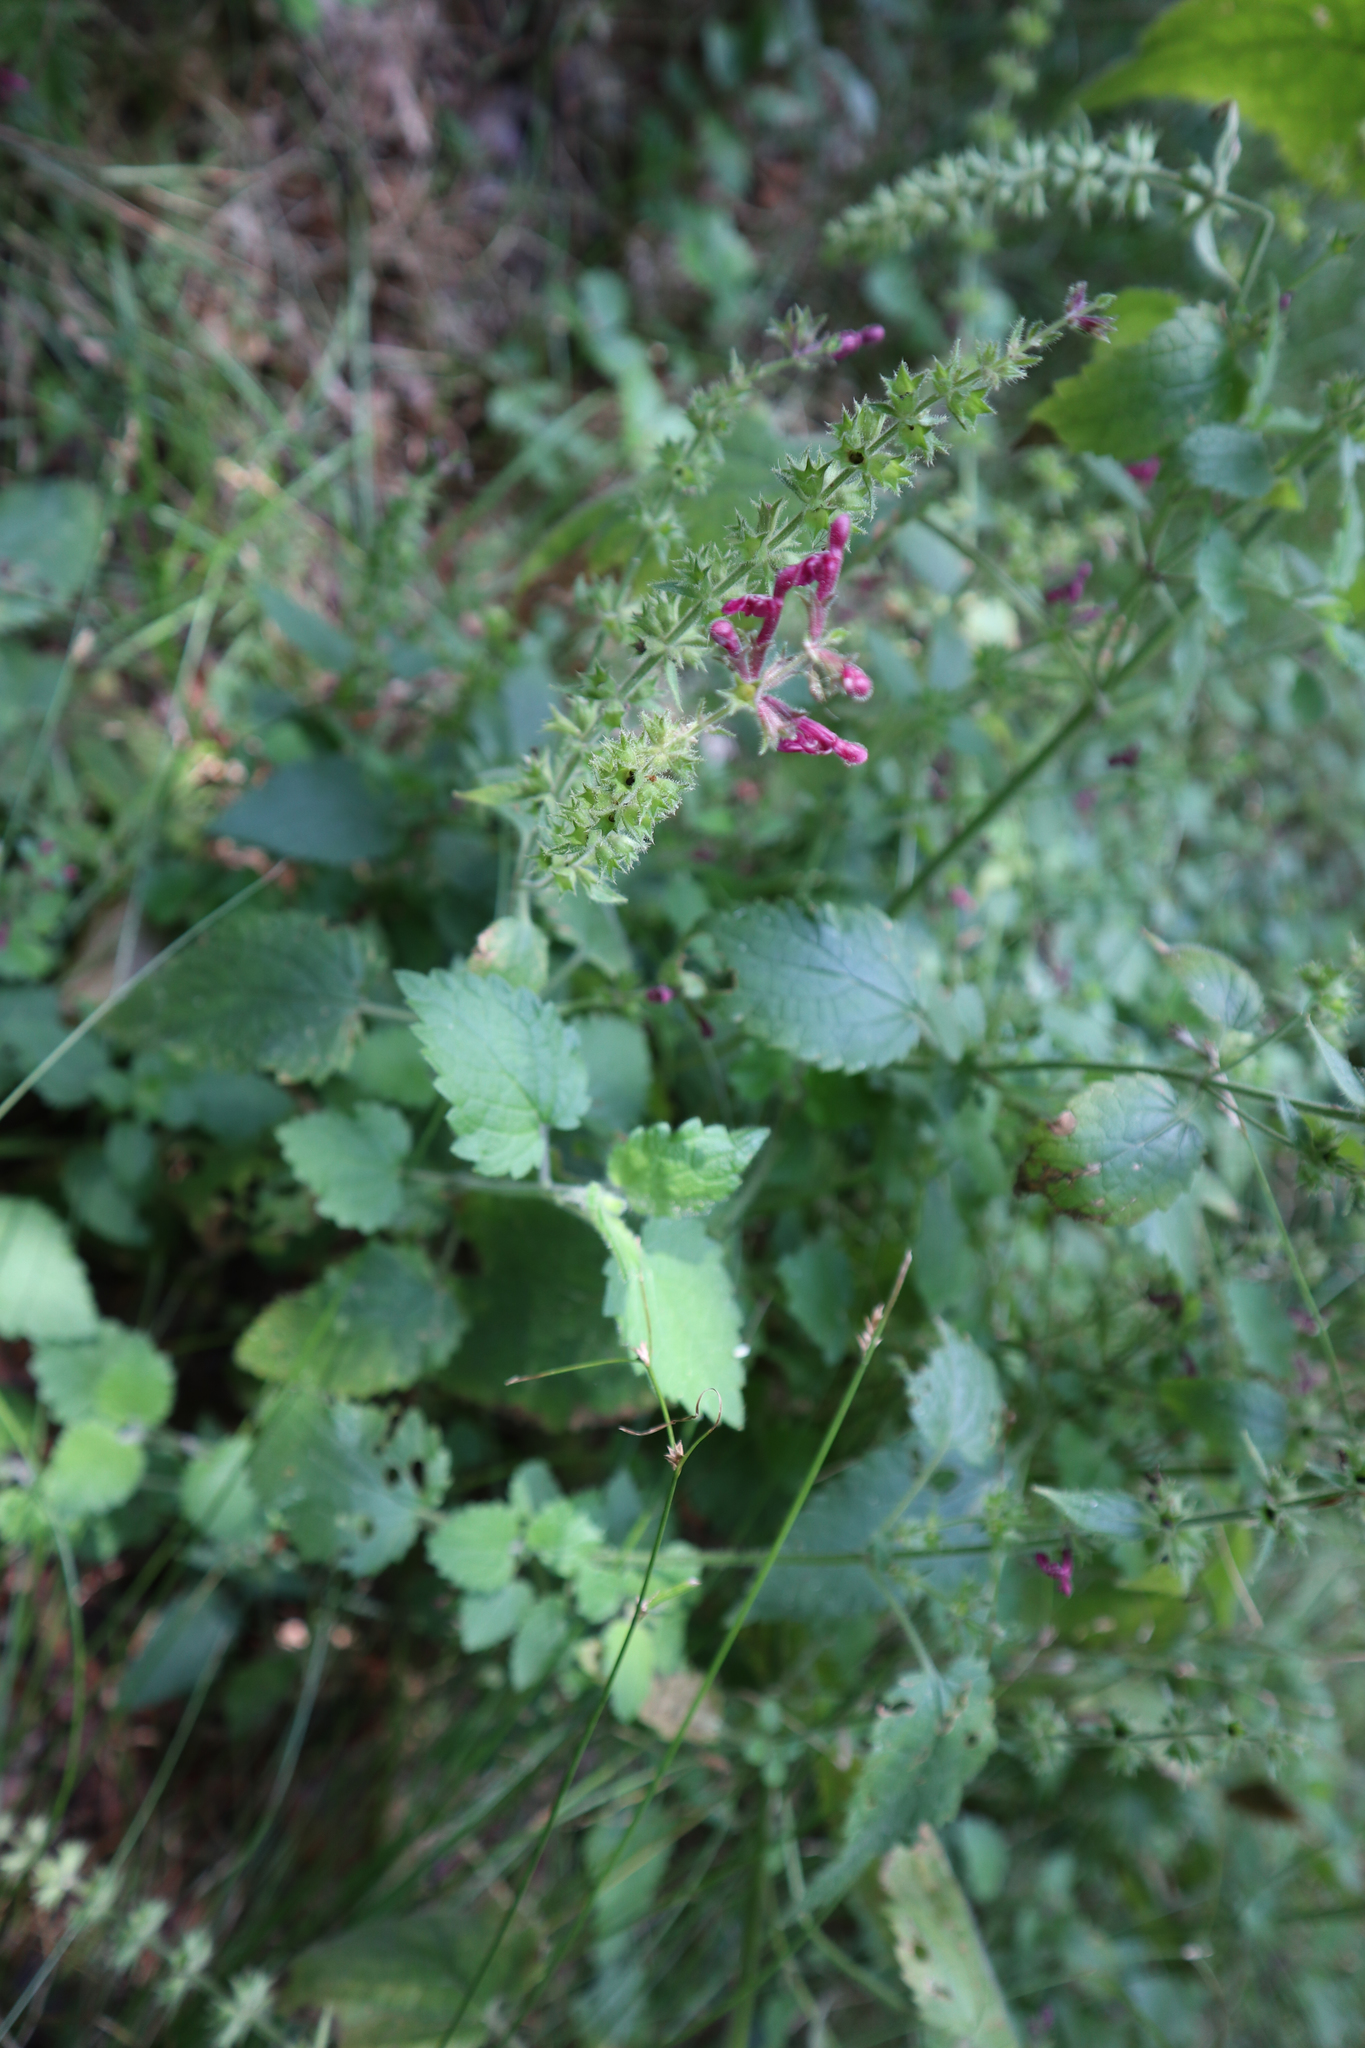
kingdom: Plantae
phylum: Tracheophyta
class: Magnoliopsida
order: Lamiales
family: Lamiaceae
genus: Stachys
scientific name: Stachys sylvatica
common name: Hedge woundwort
